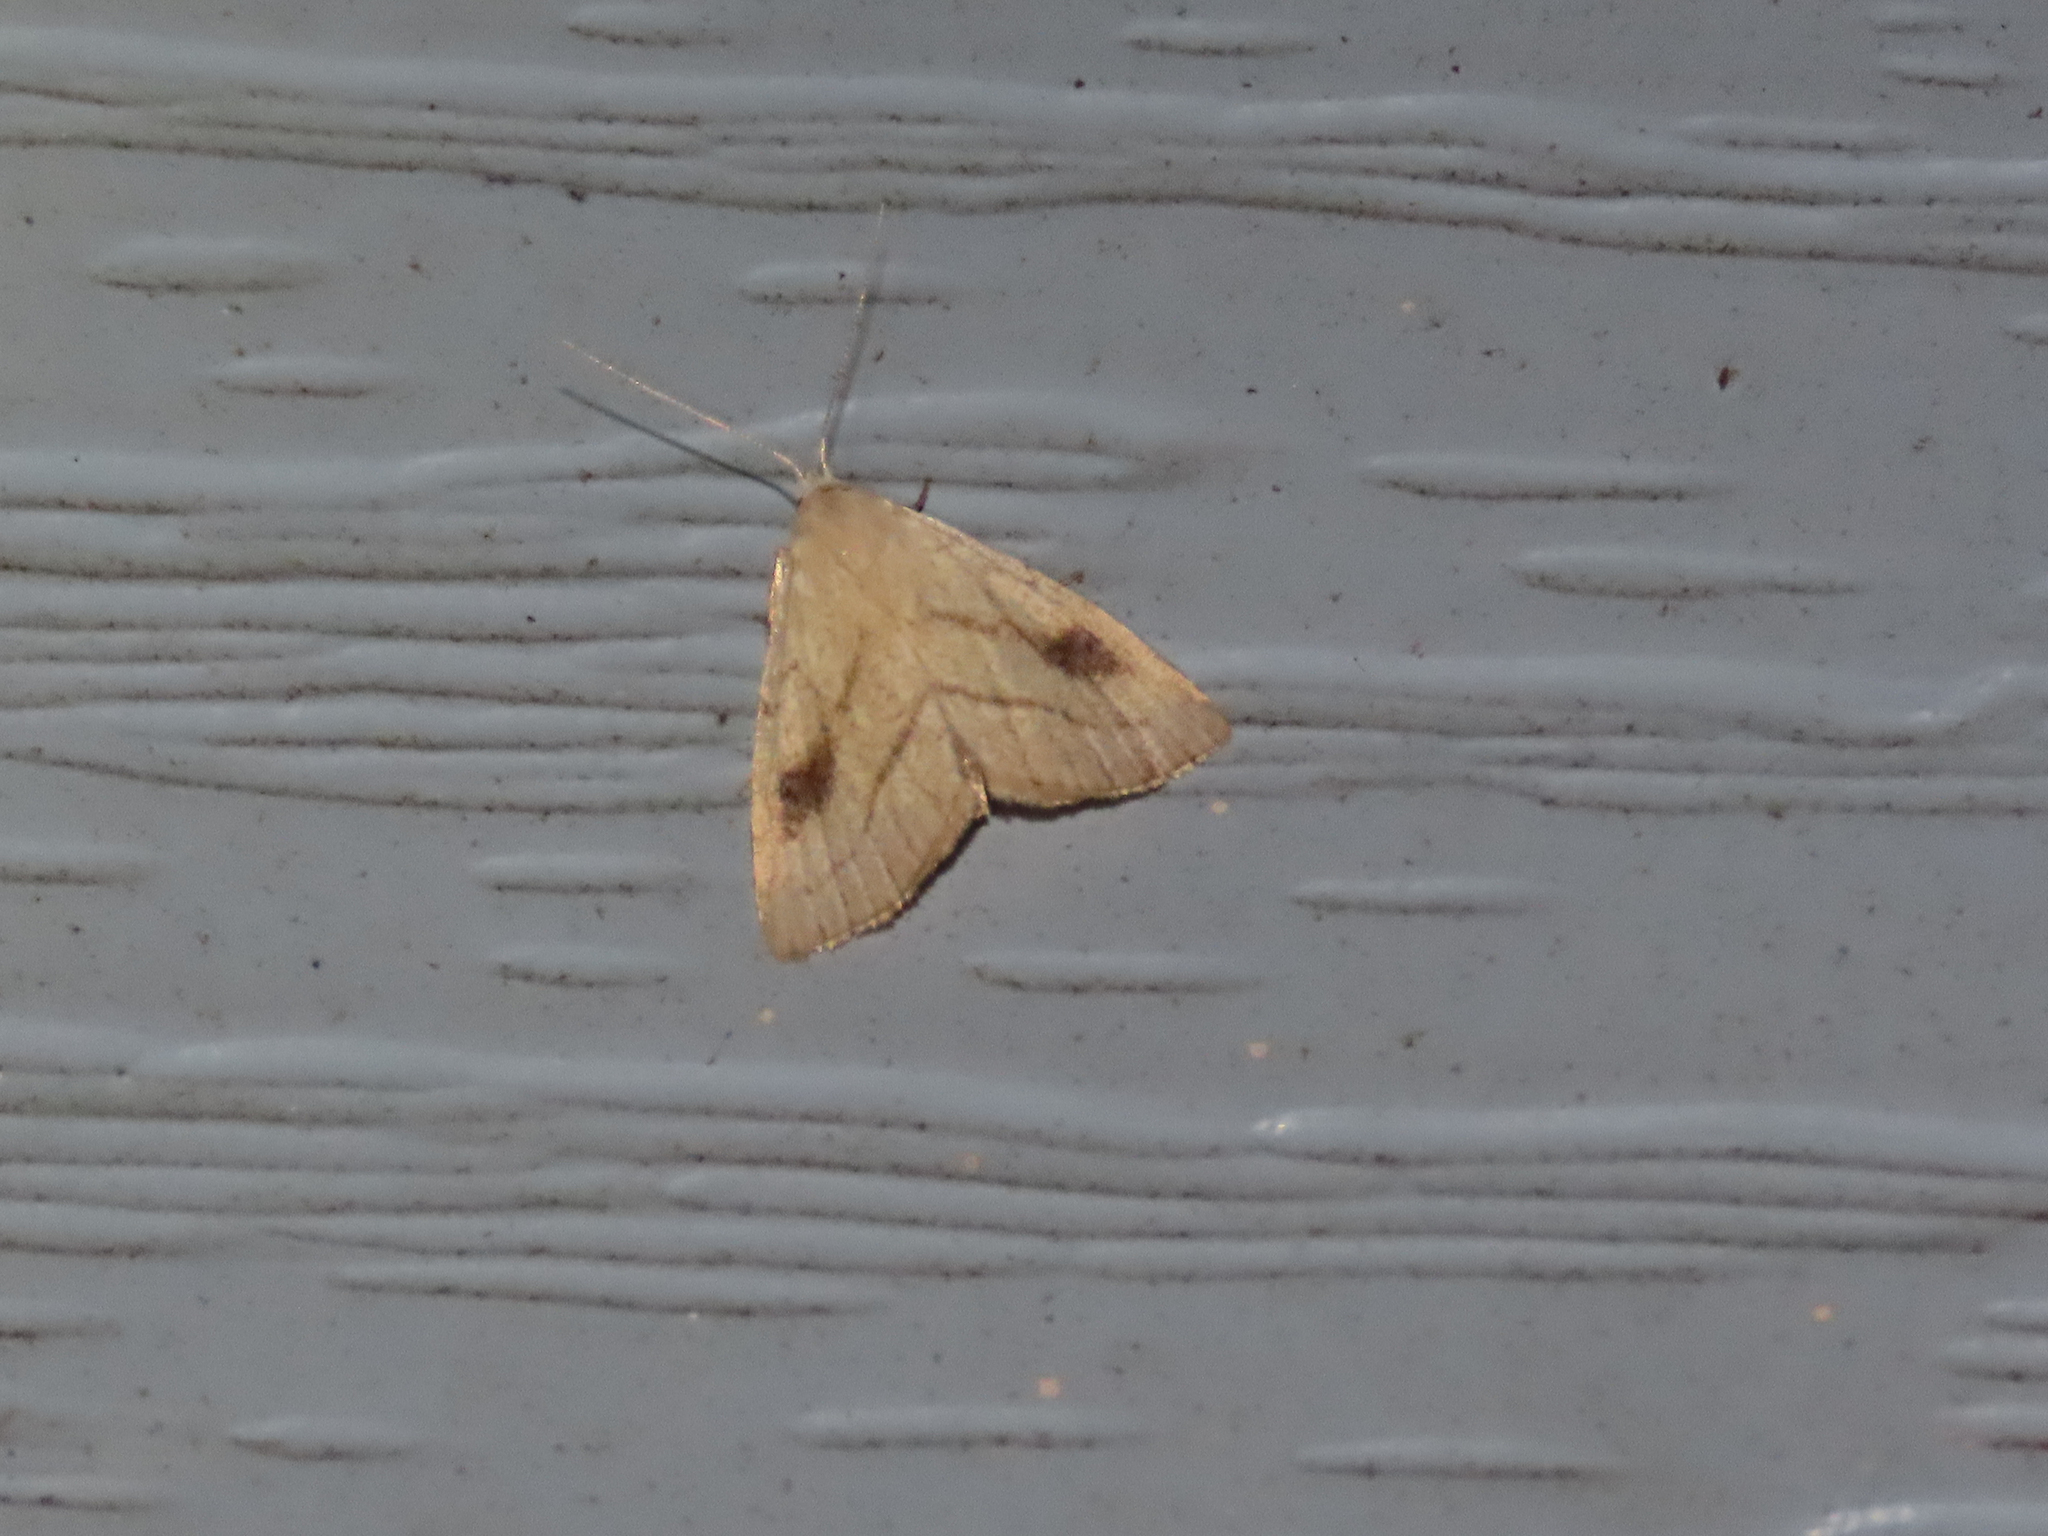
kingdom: Animalia
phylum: Arthropoda
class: Insecta
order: Lepidoptera
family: Erebidae
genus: Rivula
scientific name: Rivula propinqualis
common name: Spotted grass moth
